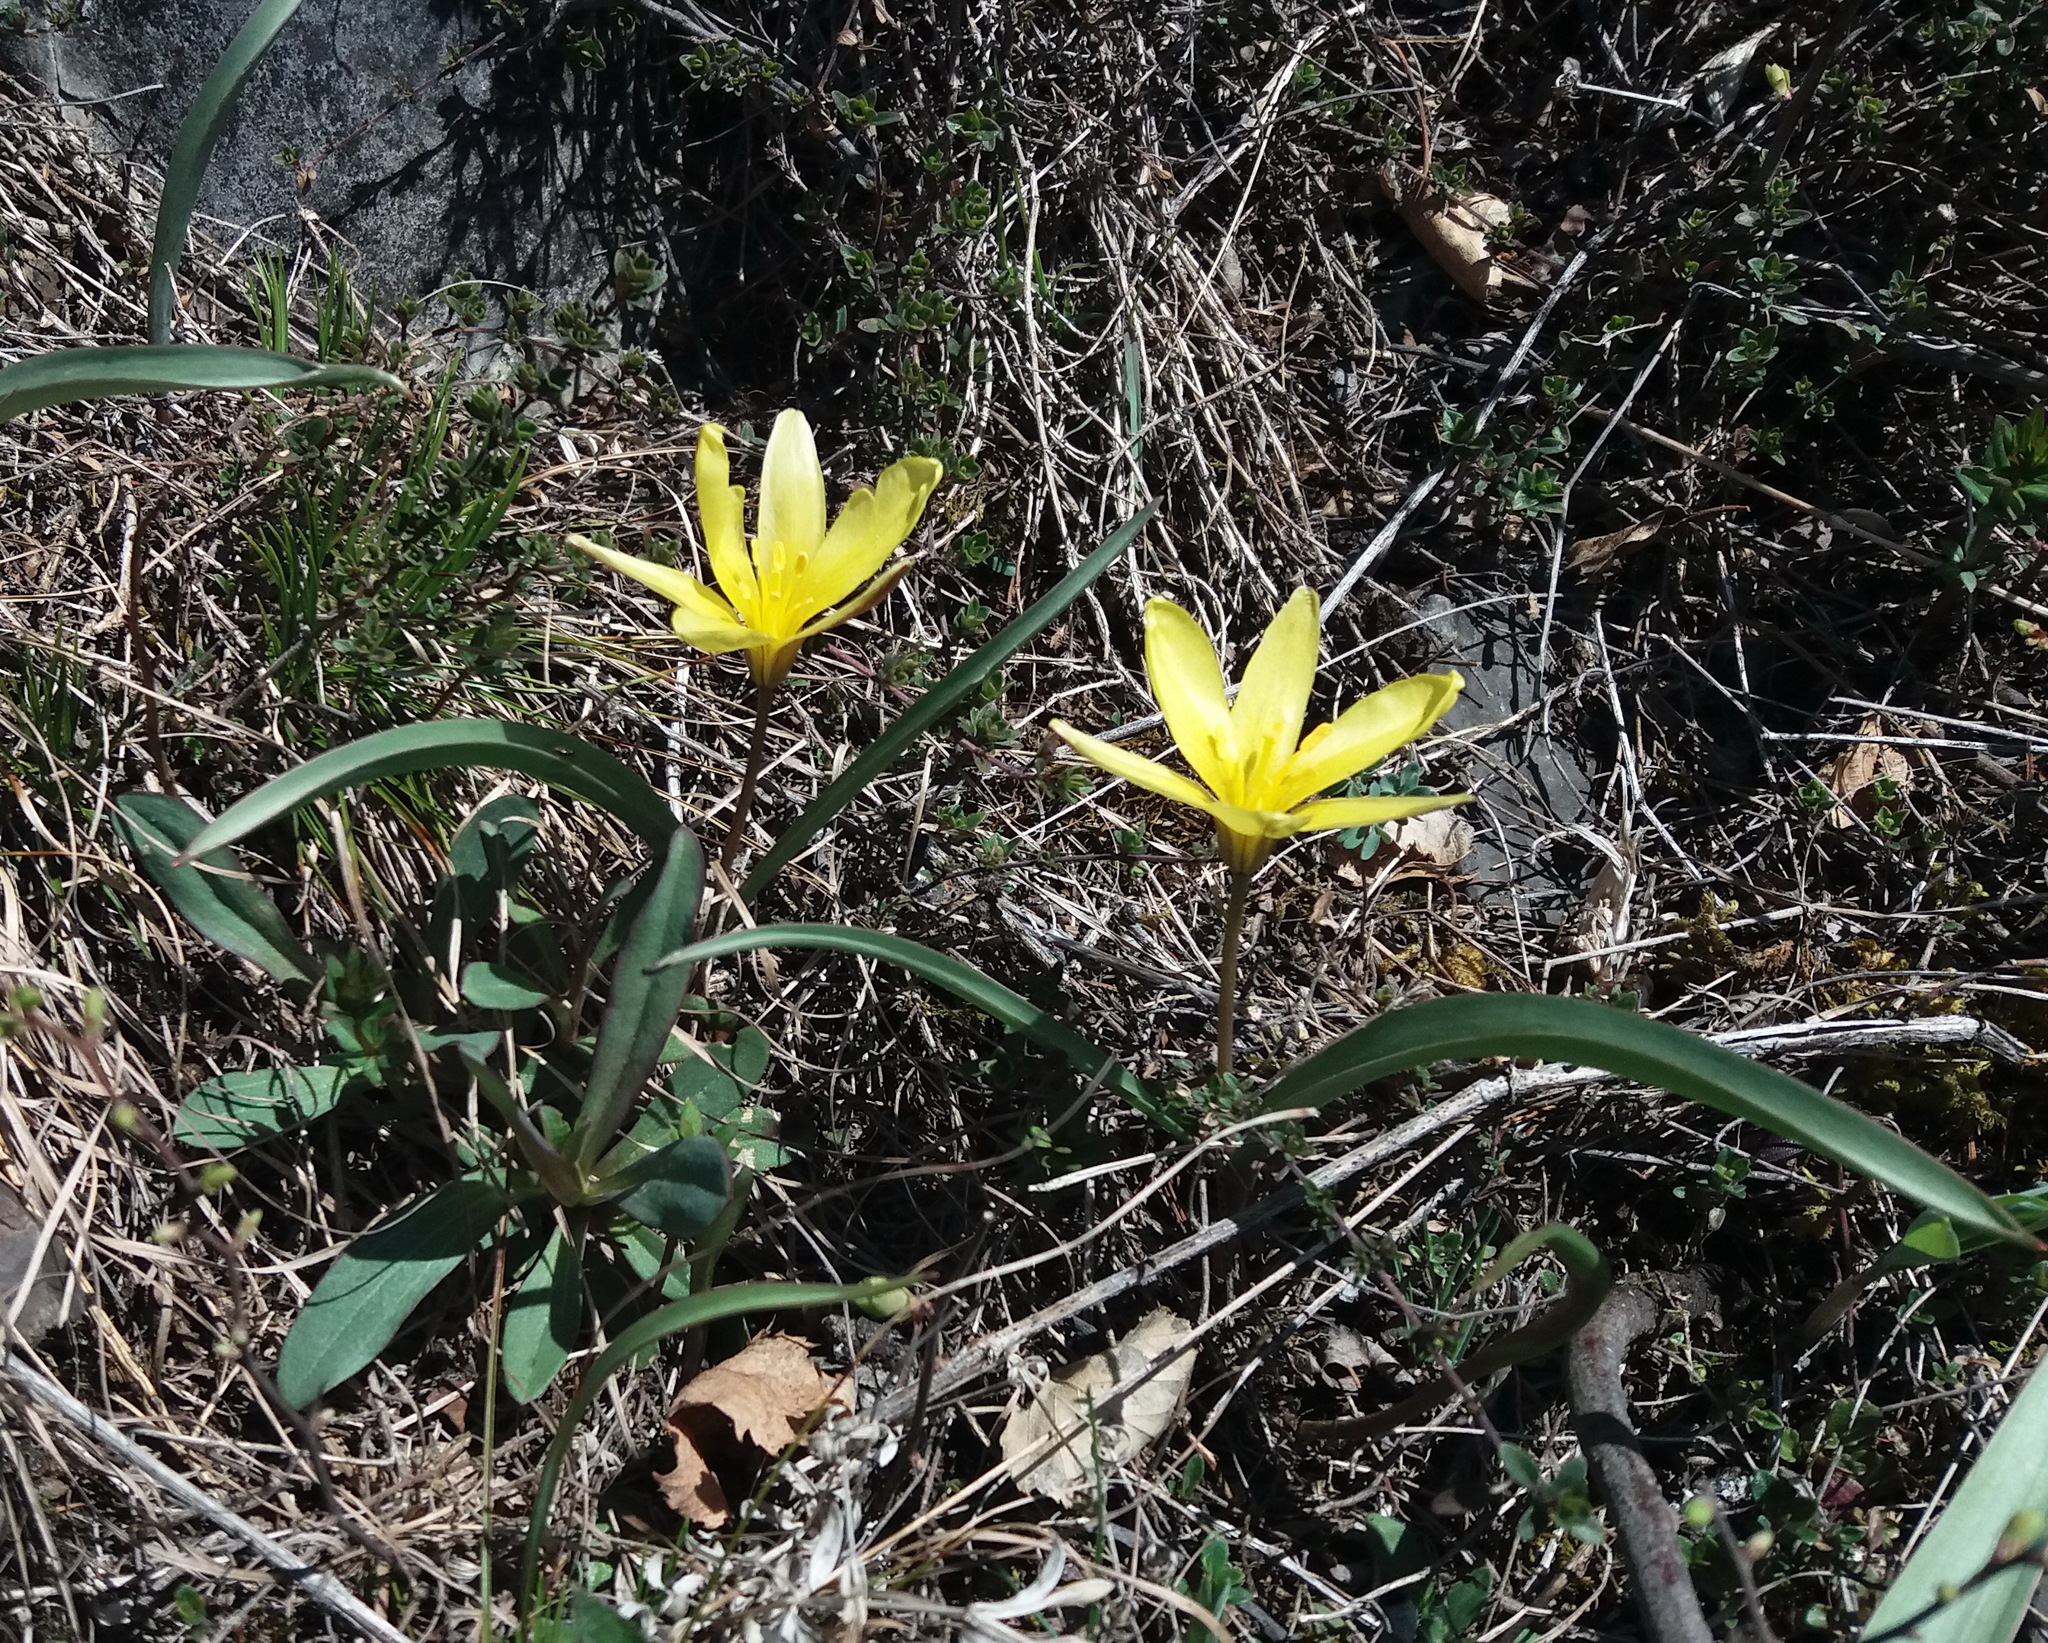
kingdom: Plantae
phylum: Tracheophyta
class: Liliopsida
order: Liliales
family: Liliaceae
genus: Tulipa
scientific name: Tulipa uniflora
